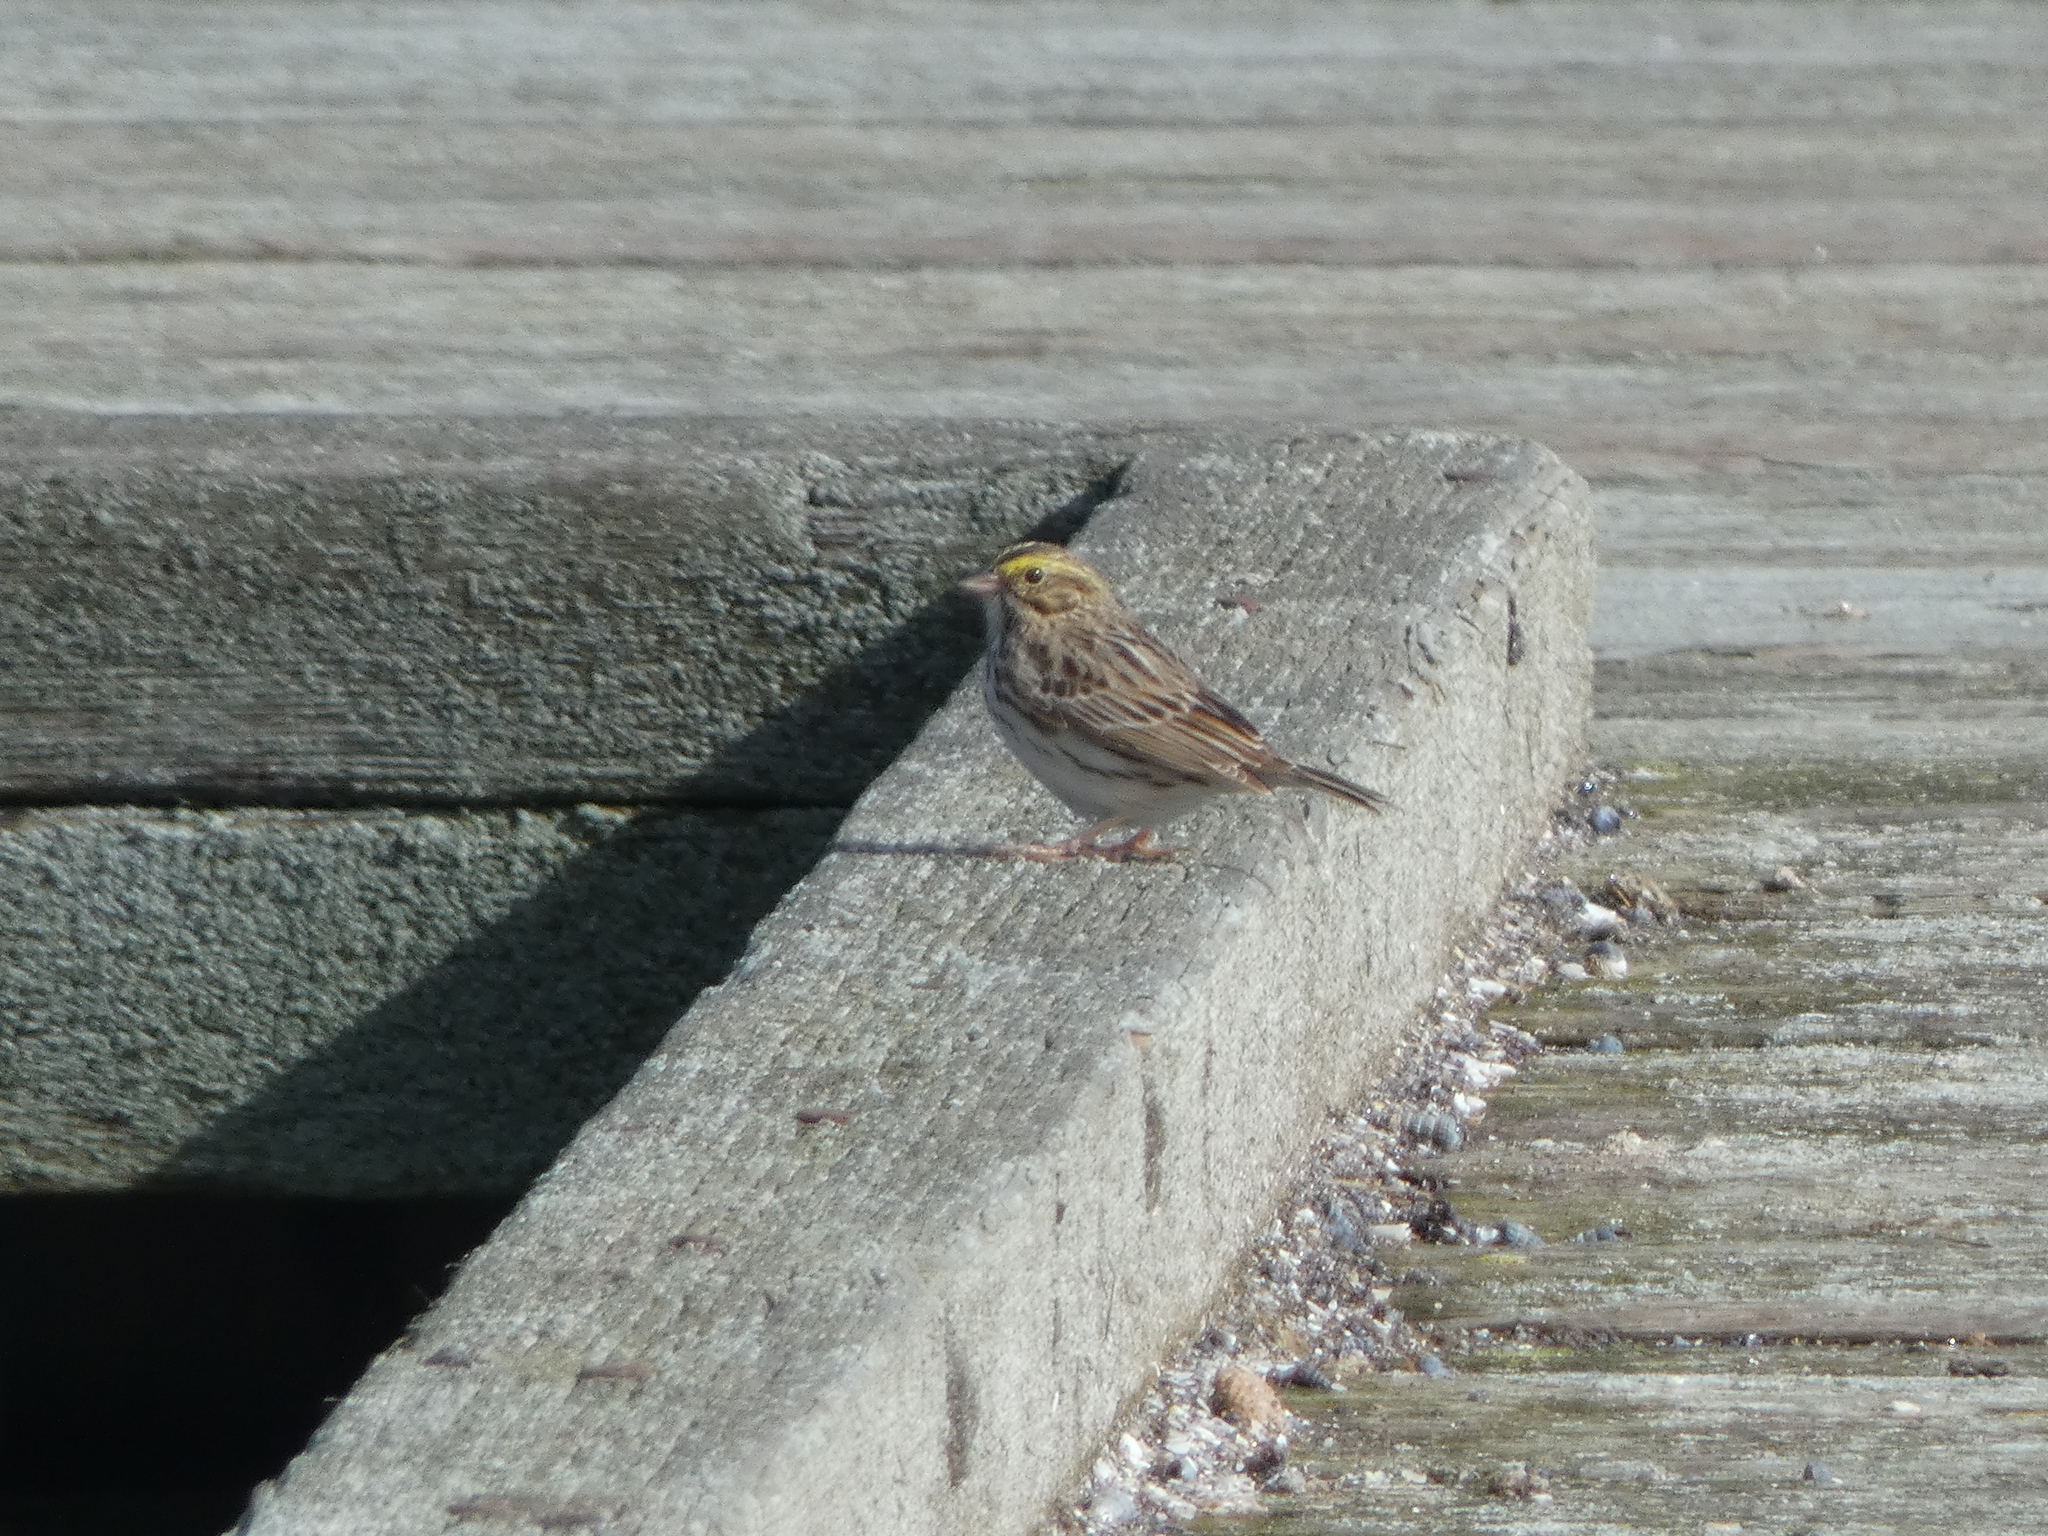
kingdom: Animalia
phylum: Chordata
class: Aves
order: Passeriformes
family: Passerellidae
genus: Passerculus
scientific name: Passerculus sandwichensis
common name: Savannah sparrow
